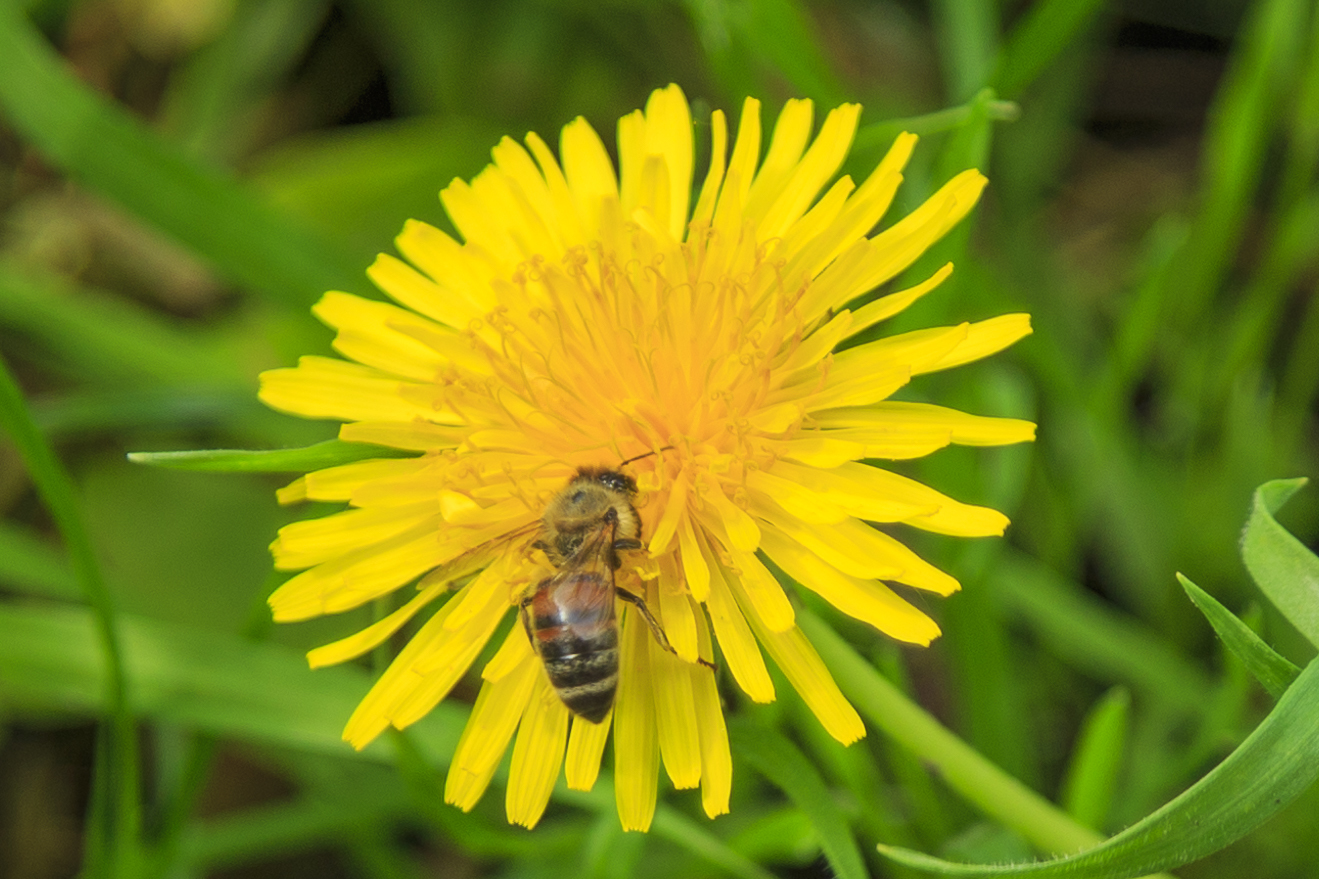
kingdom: Animalia
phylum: Arthropoda
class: Insecta
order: Hymenoptera
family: Apidae
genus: Apis
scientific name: Apis mellifera
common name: Honey bee
